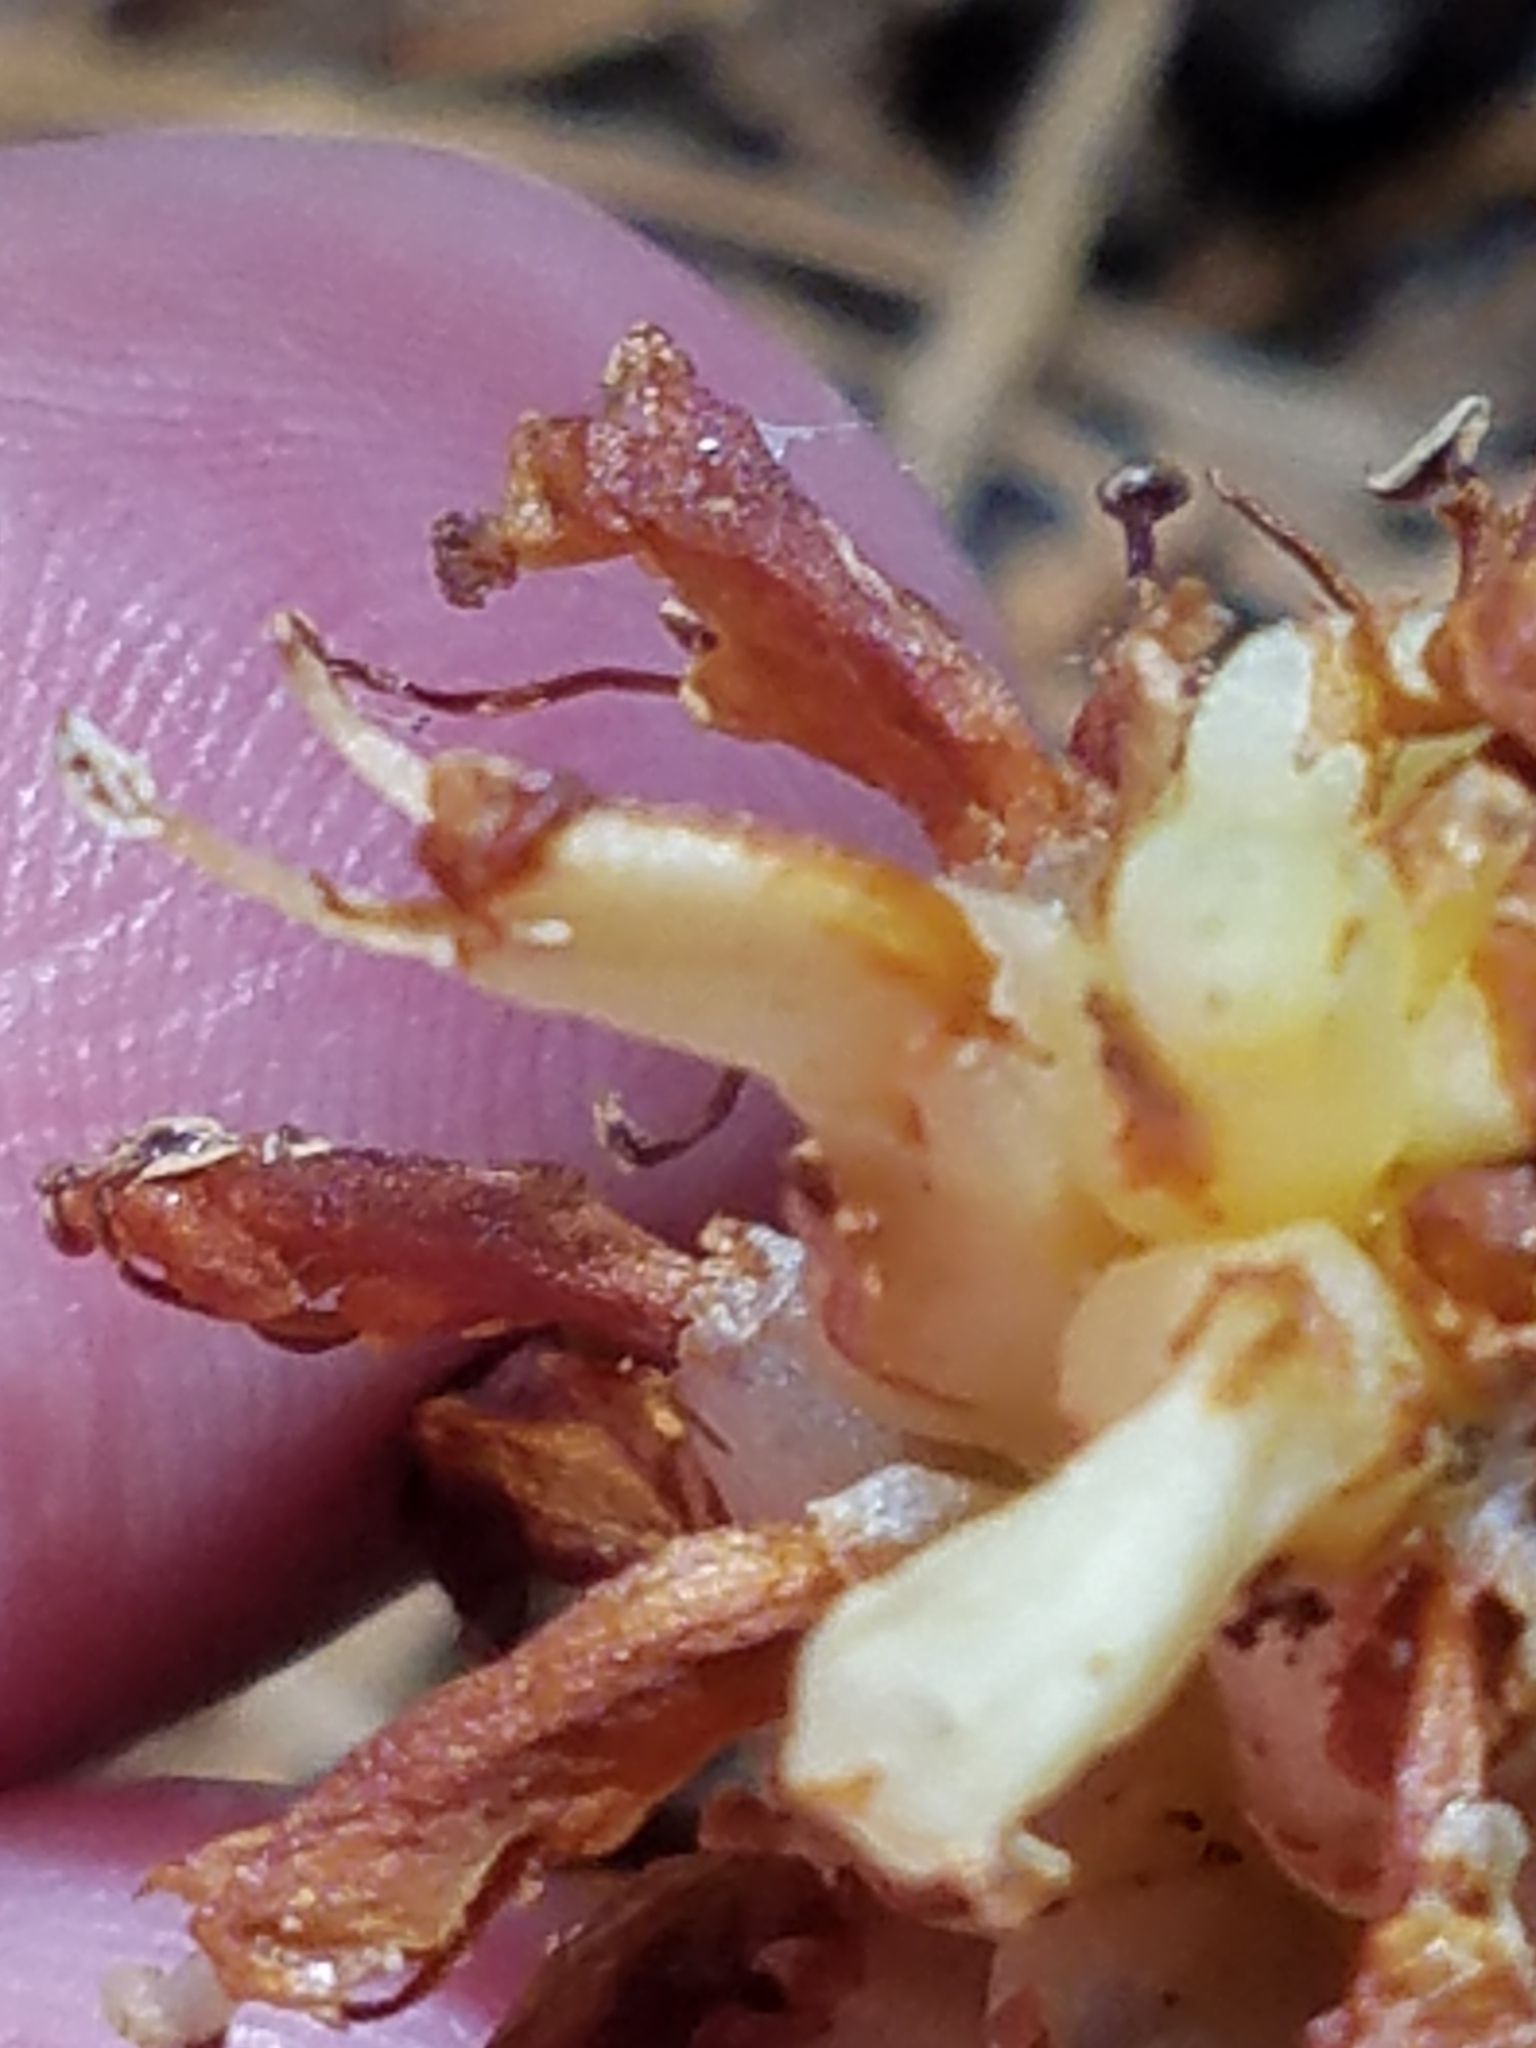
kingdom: Plantae
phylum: Tracheophyta
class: Magnoliopsida
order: Lamiales
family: Orobanchaceae
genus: Conopholis
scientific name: Conopholis americana
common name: American cancer-root
